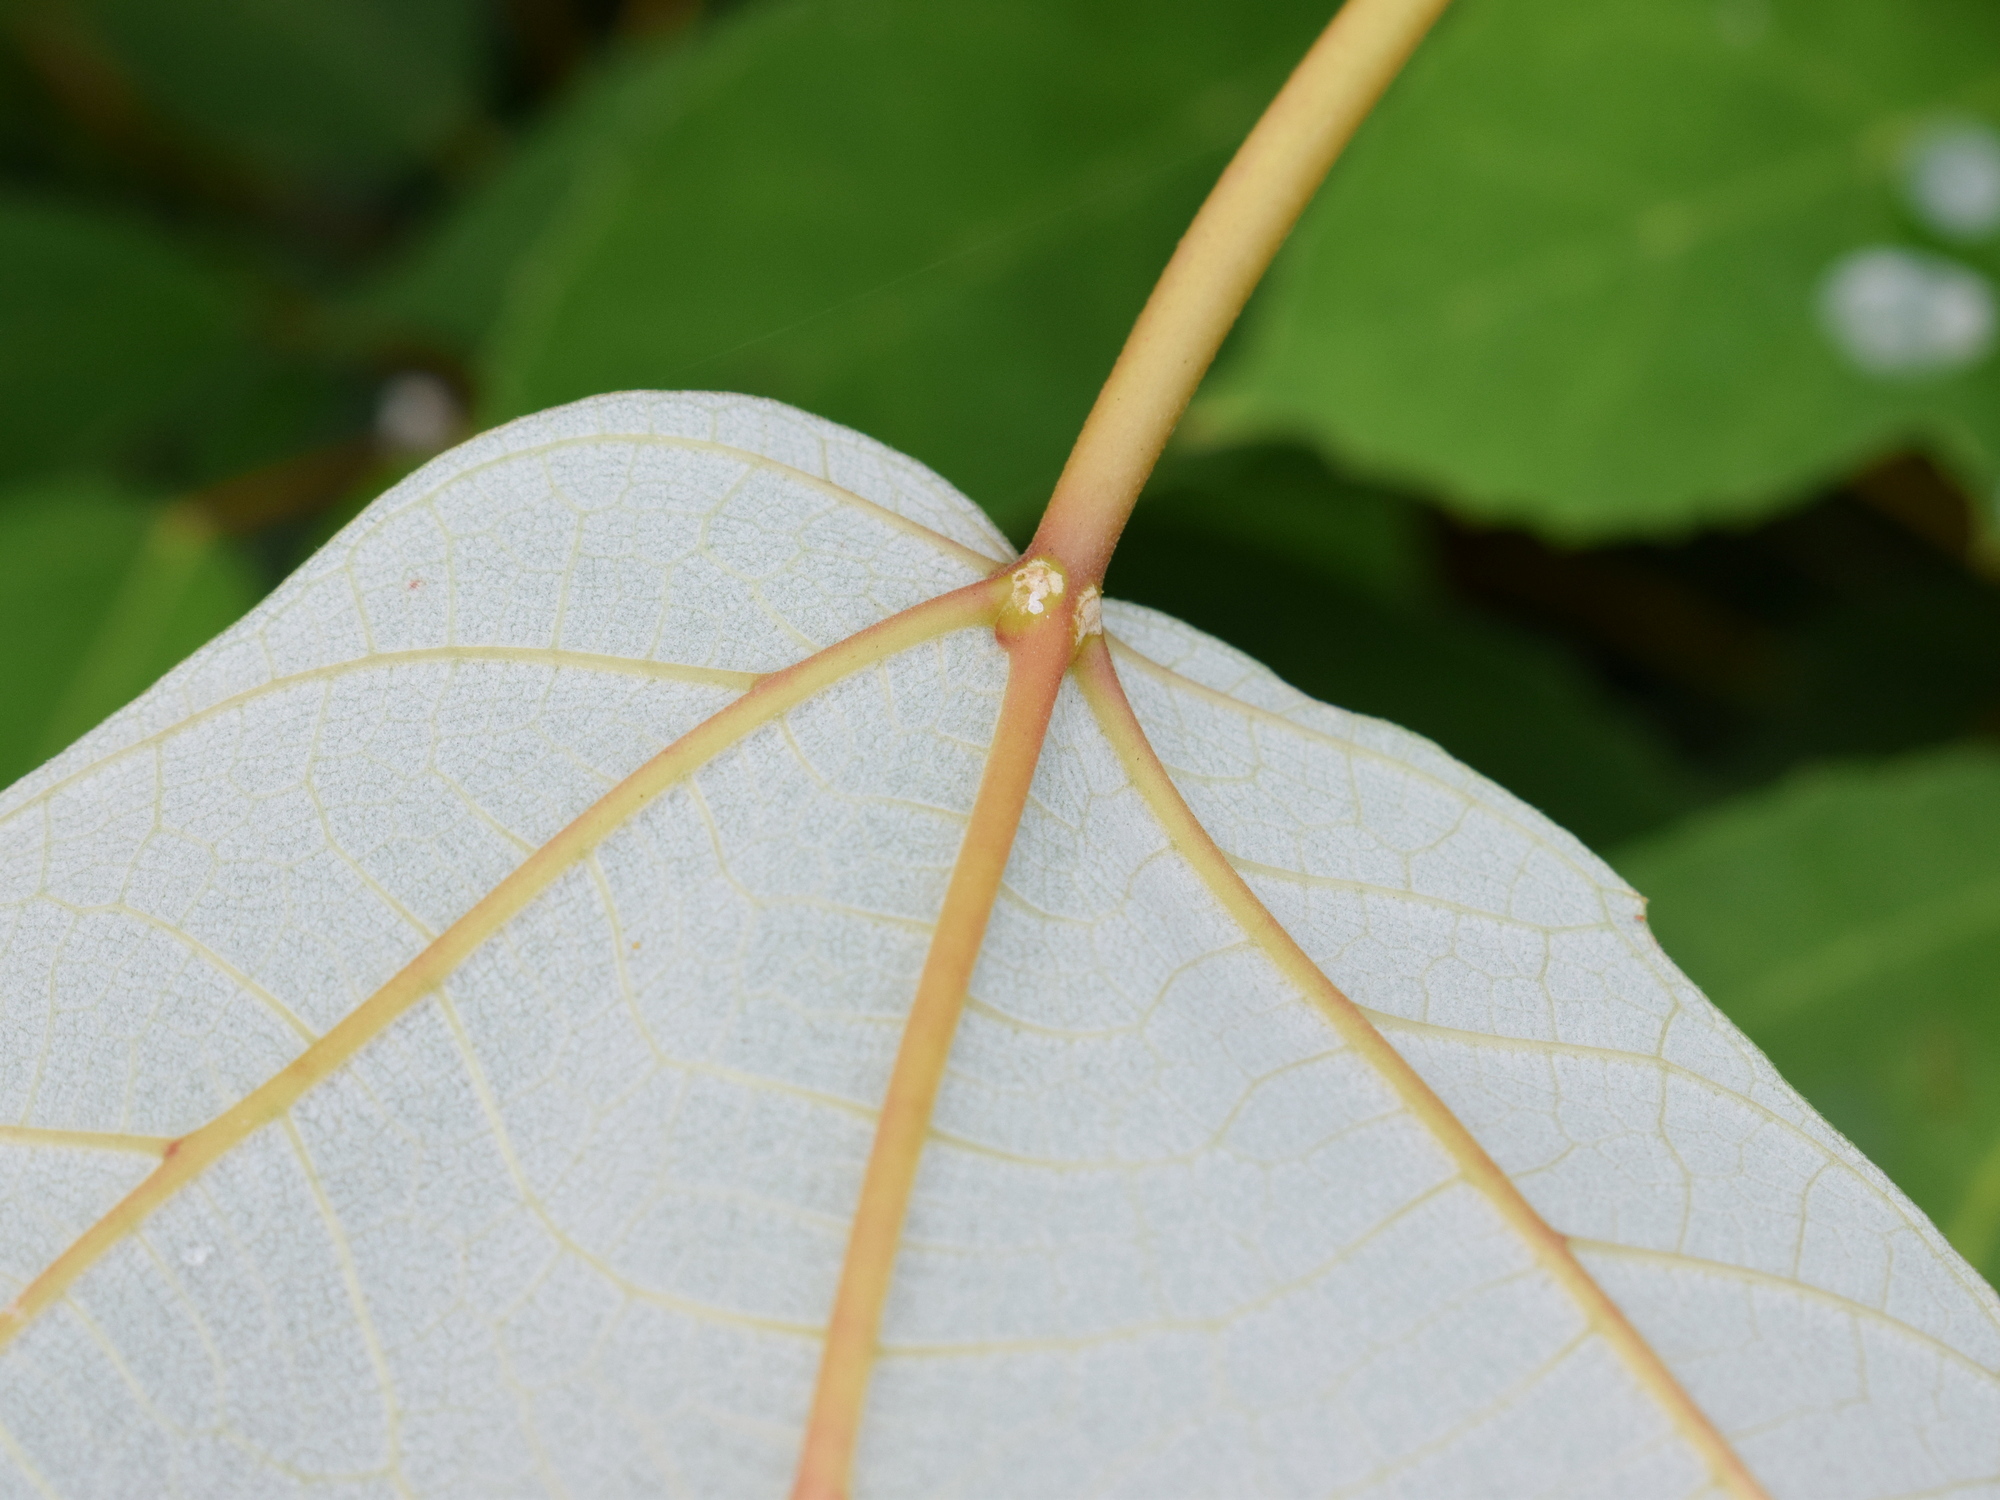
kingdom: Plantae
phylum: Tracheophyta
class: Magnoliopsida
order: Rosales
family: Moraceae
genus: Ficus
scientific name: Ficus grossularioides
